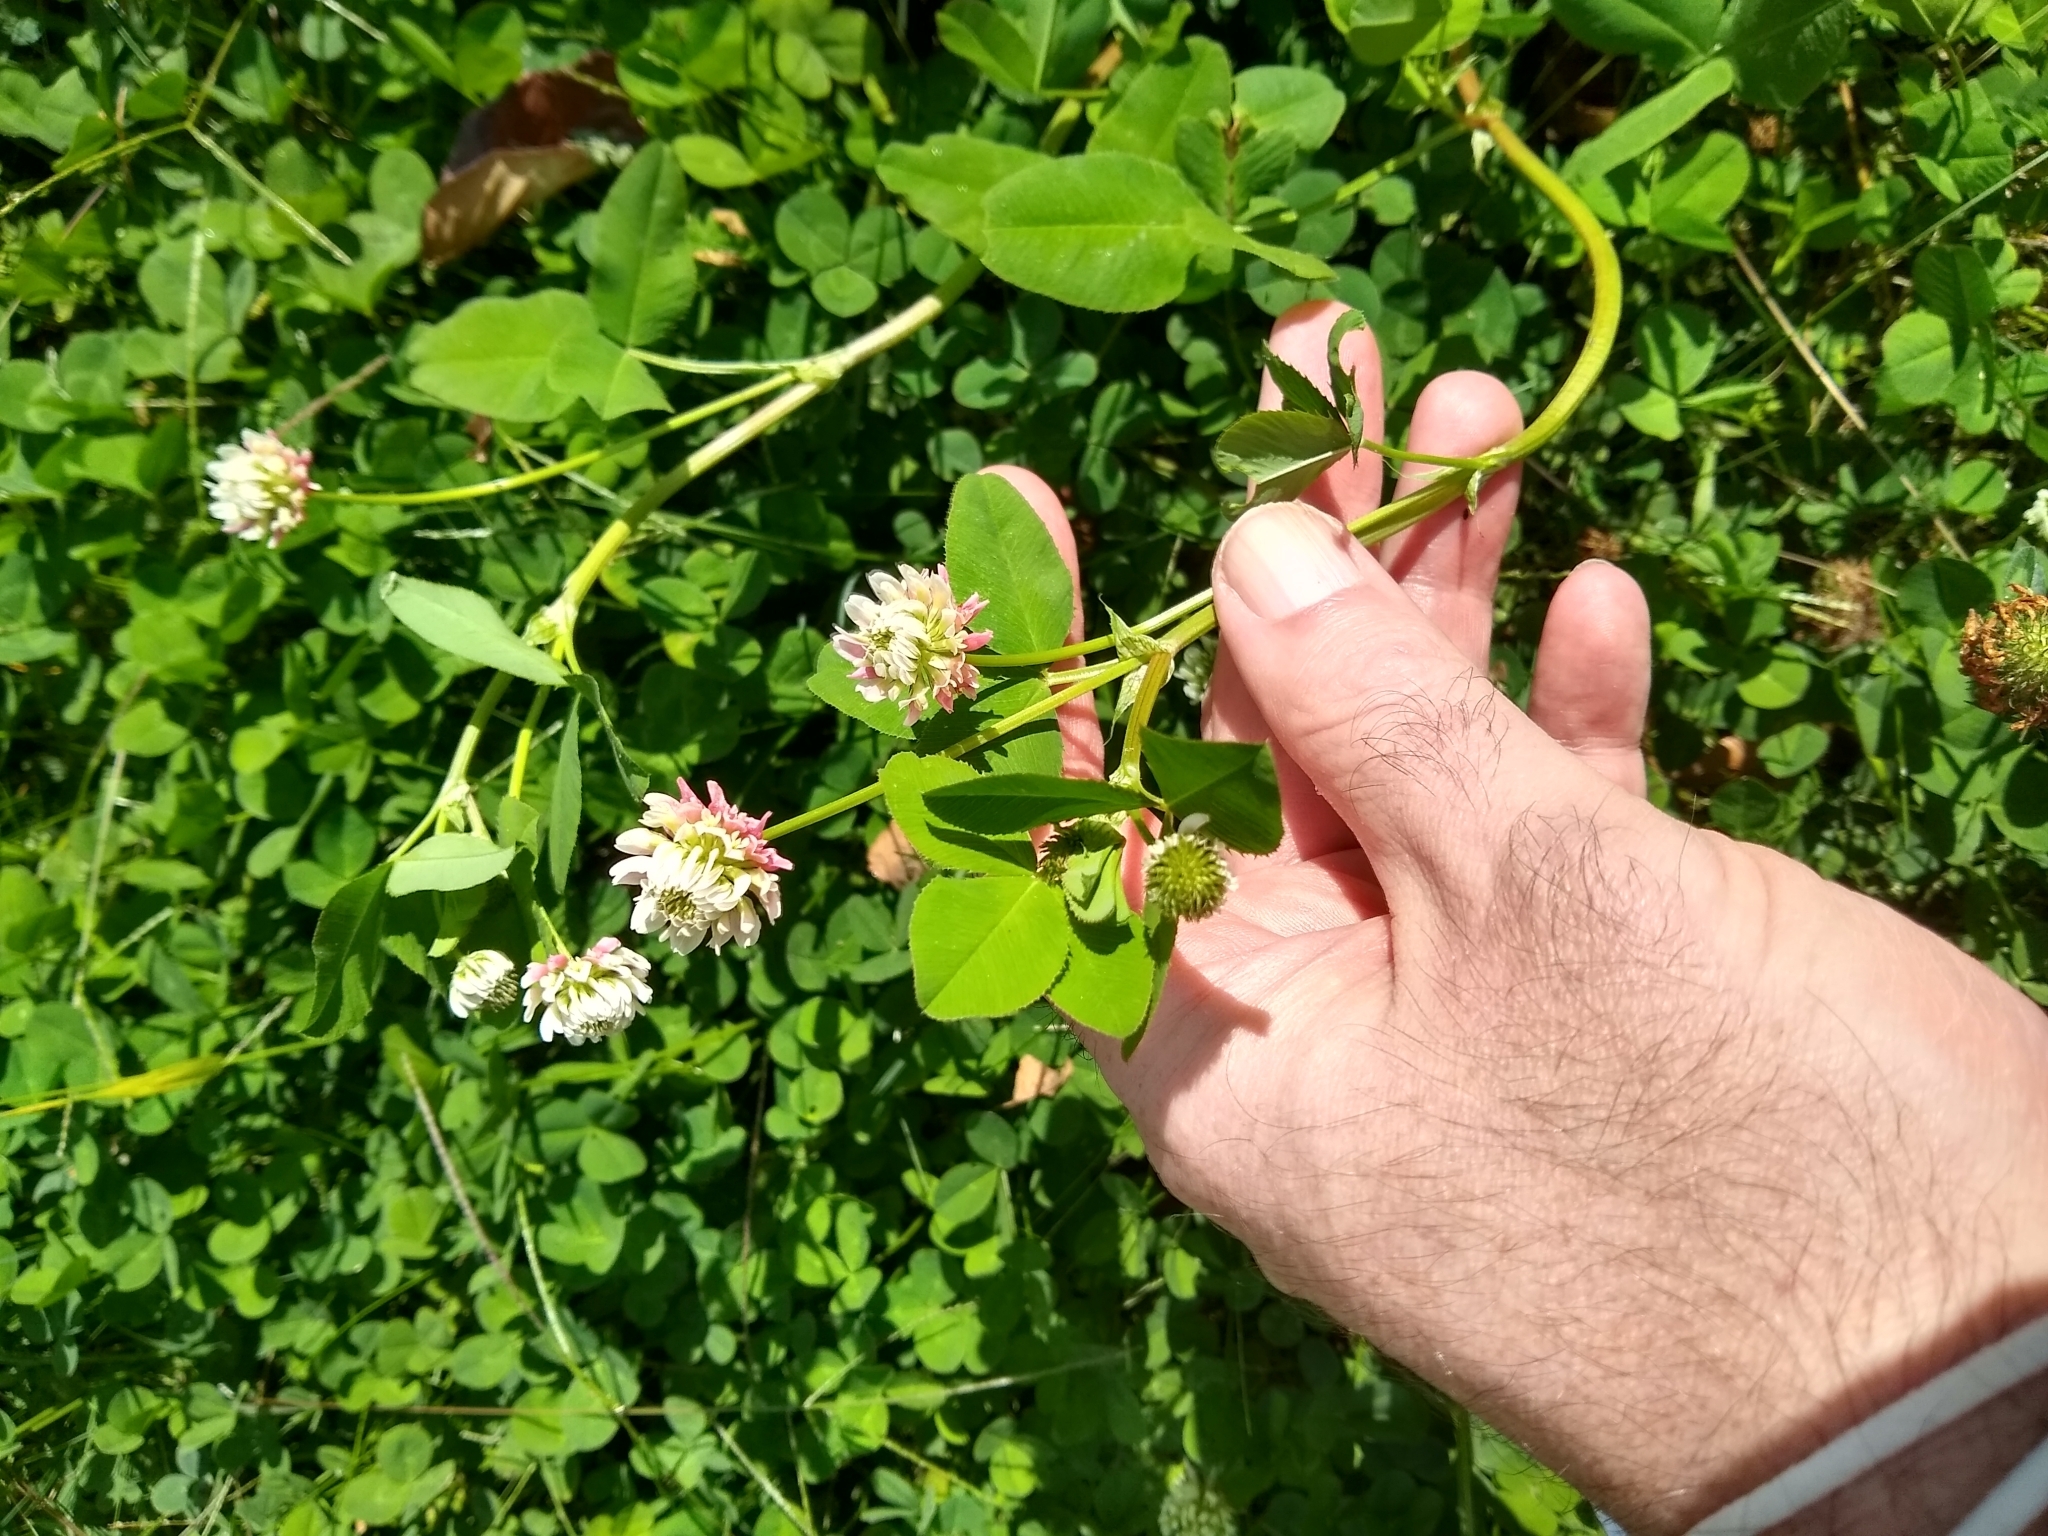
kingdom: Plantae
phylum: Tracheophyta
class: Magnoliopsida
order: Fabales
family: Fabaceae
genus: Trifolium
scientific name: Trifolium hybridum
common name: Alsike clover
